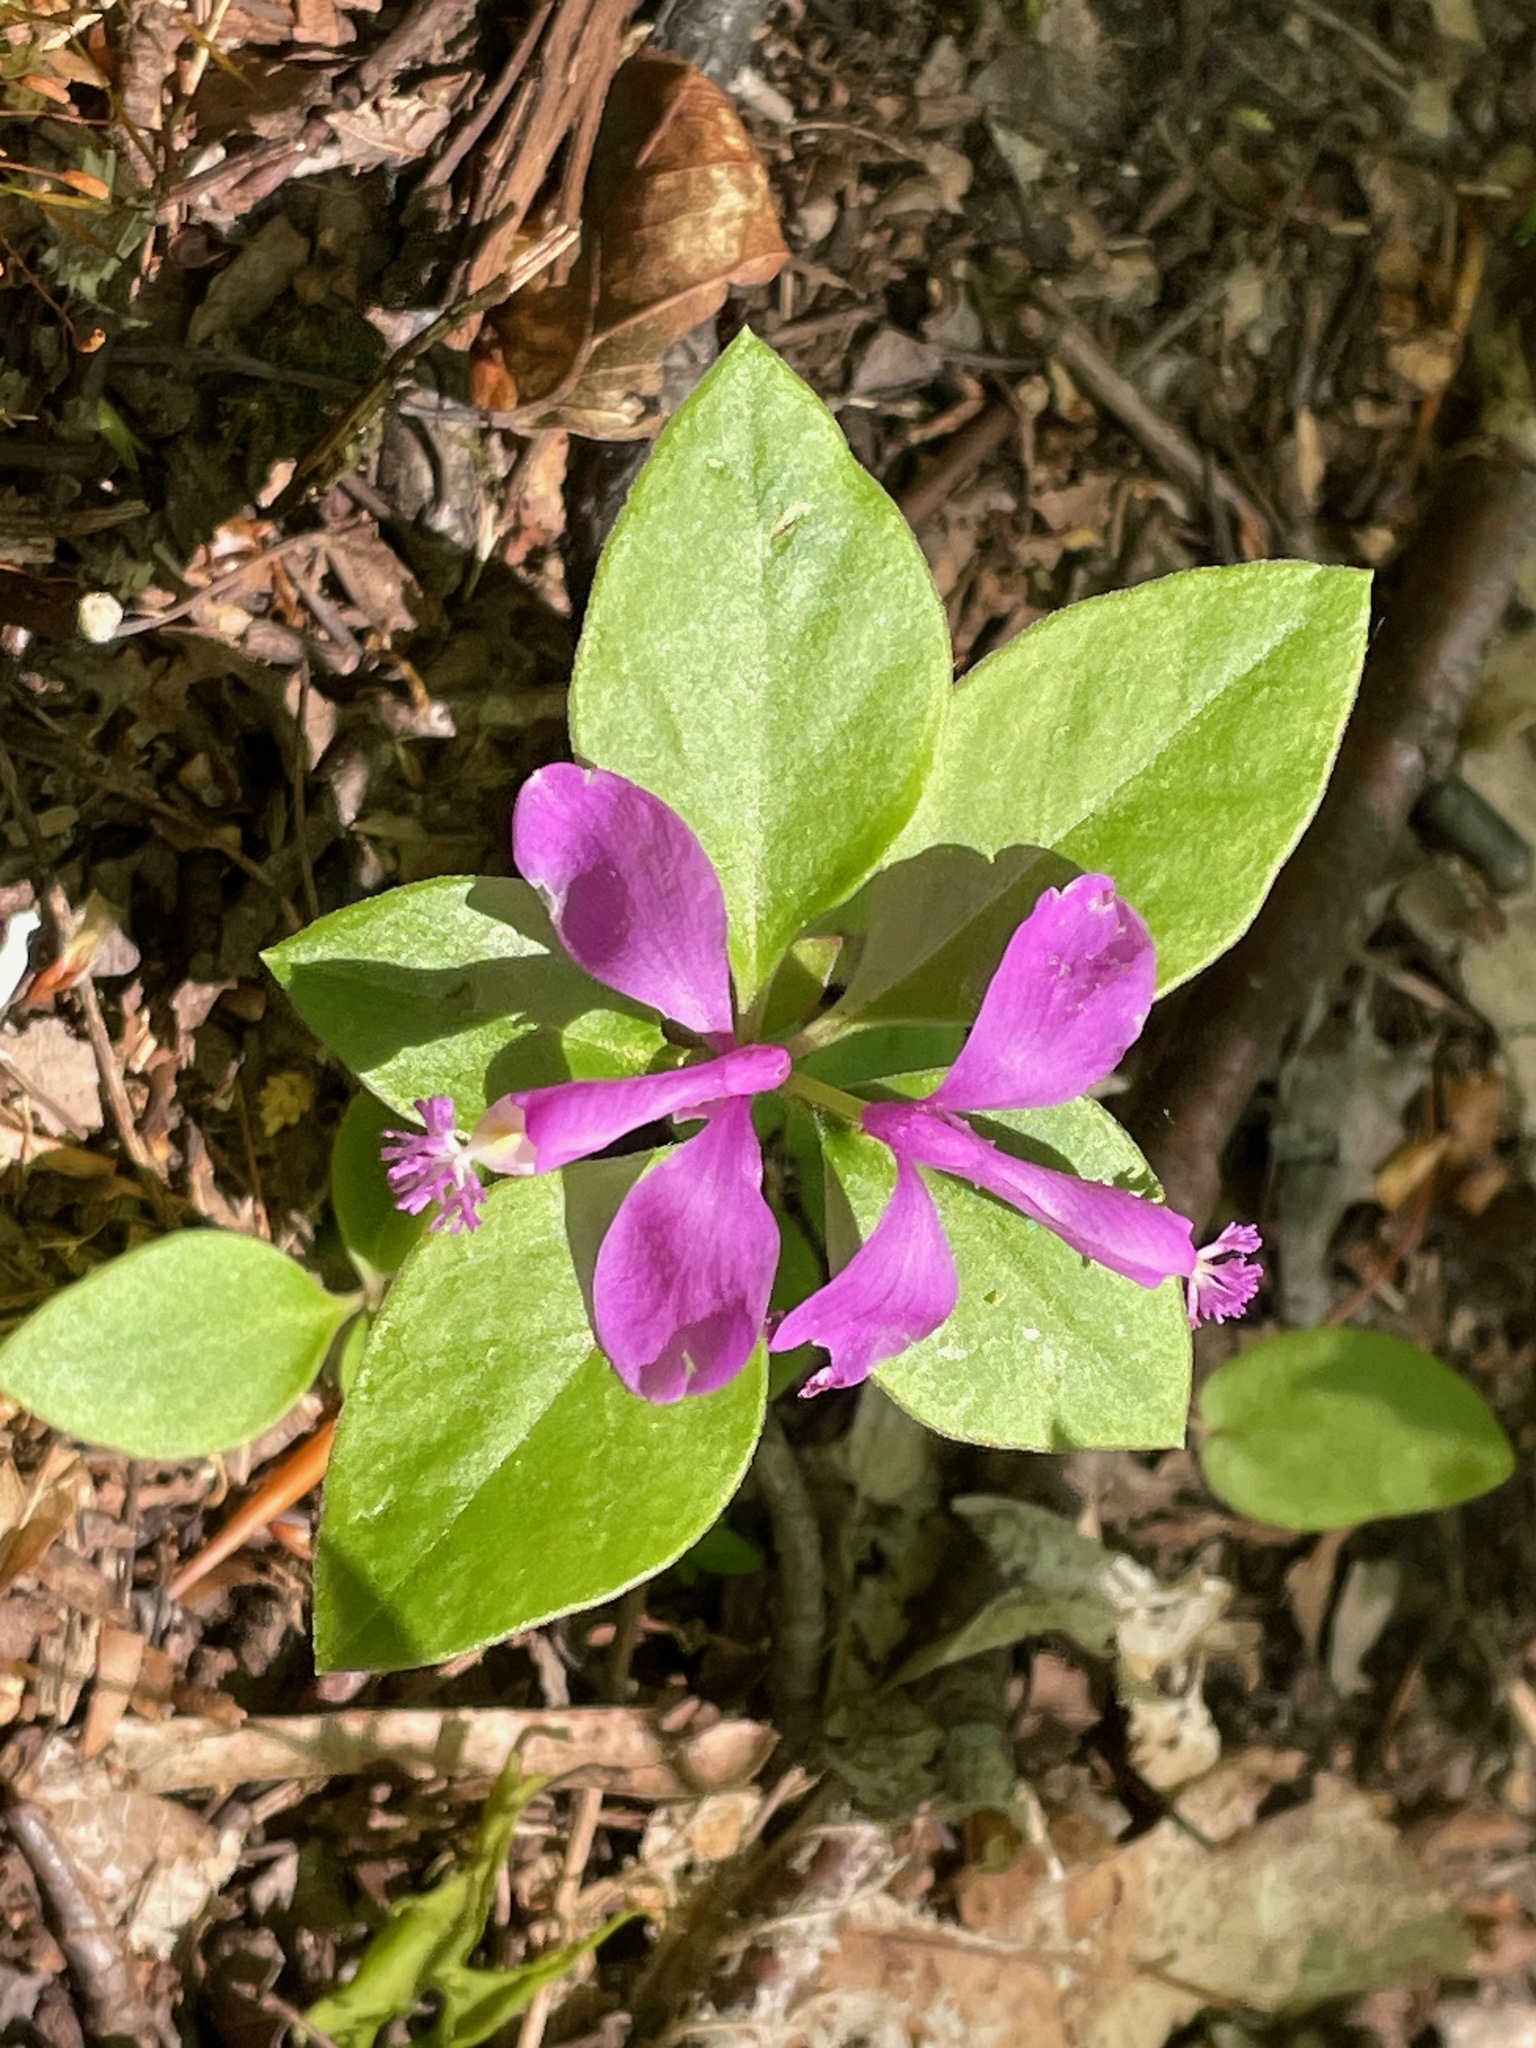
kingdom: Plantae
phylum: Tracheophyta
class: Magnoliopsida
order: Fabales
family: Polygalaceae
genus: Polygaloides
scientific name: Polygaloides paucifolia
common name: Bird-on-the-wing
